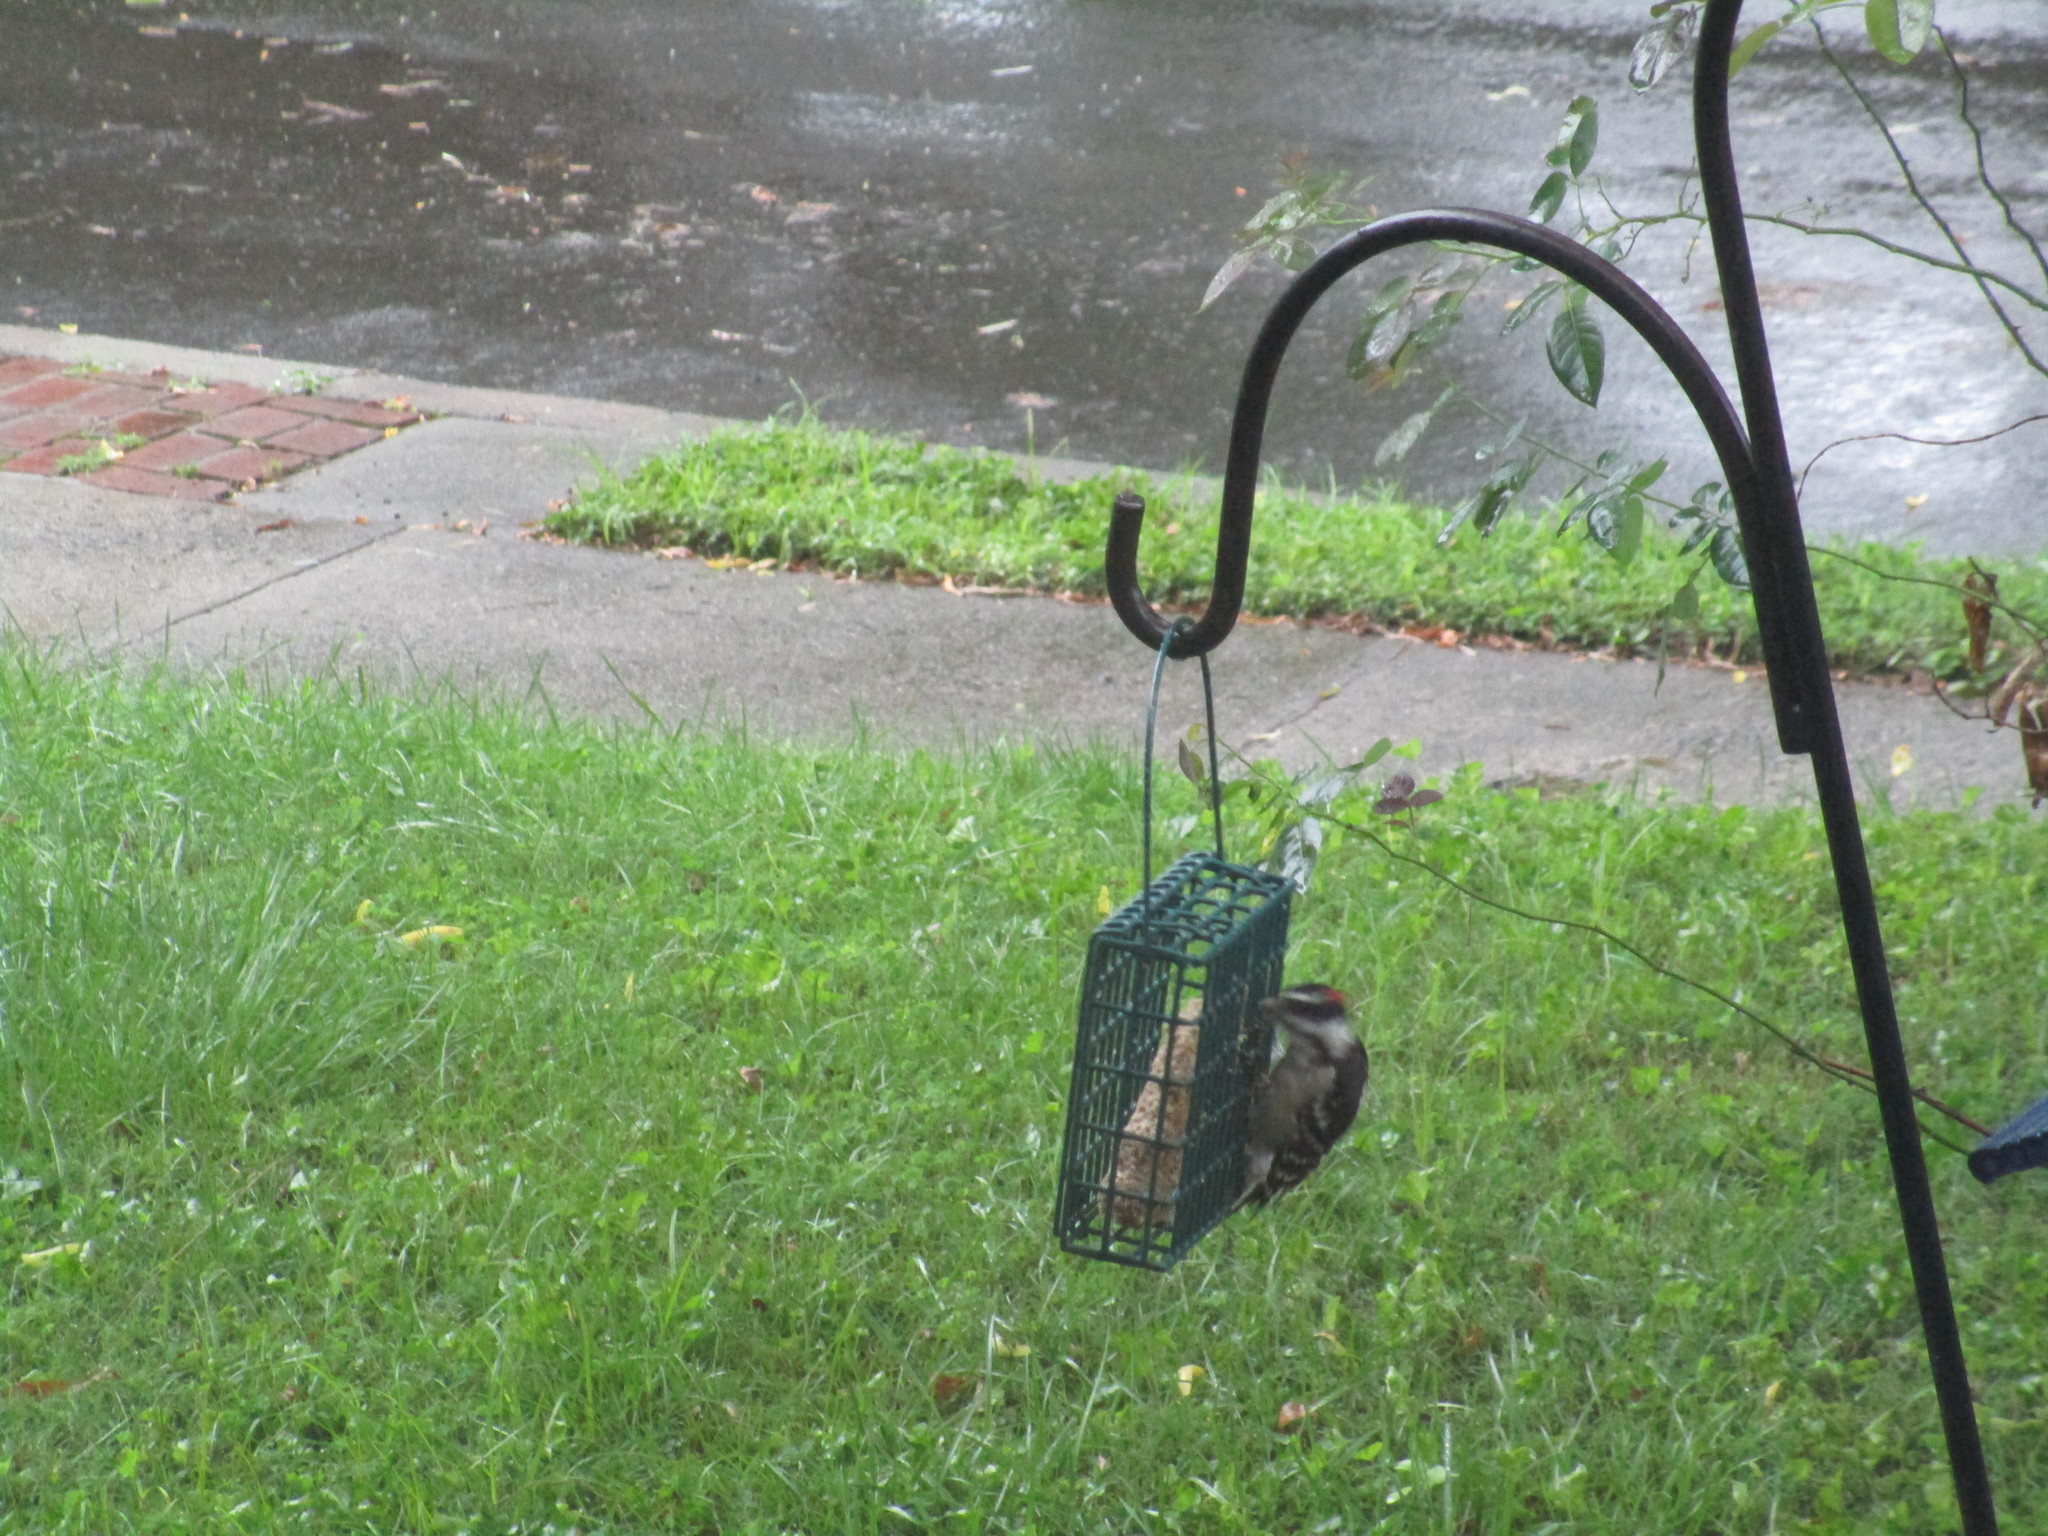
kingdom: Animalia
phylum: Chordata
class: Aves
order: Piciformes
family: Picidae
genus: Dryobates
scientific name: Dryobates pubescens
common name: Downy woodpecker
